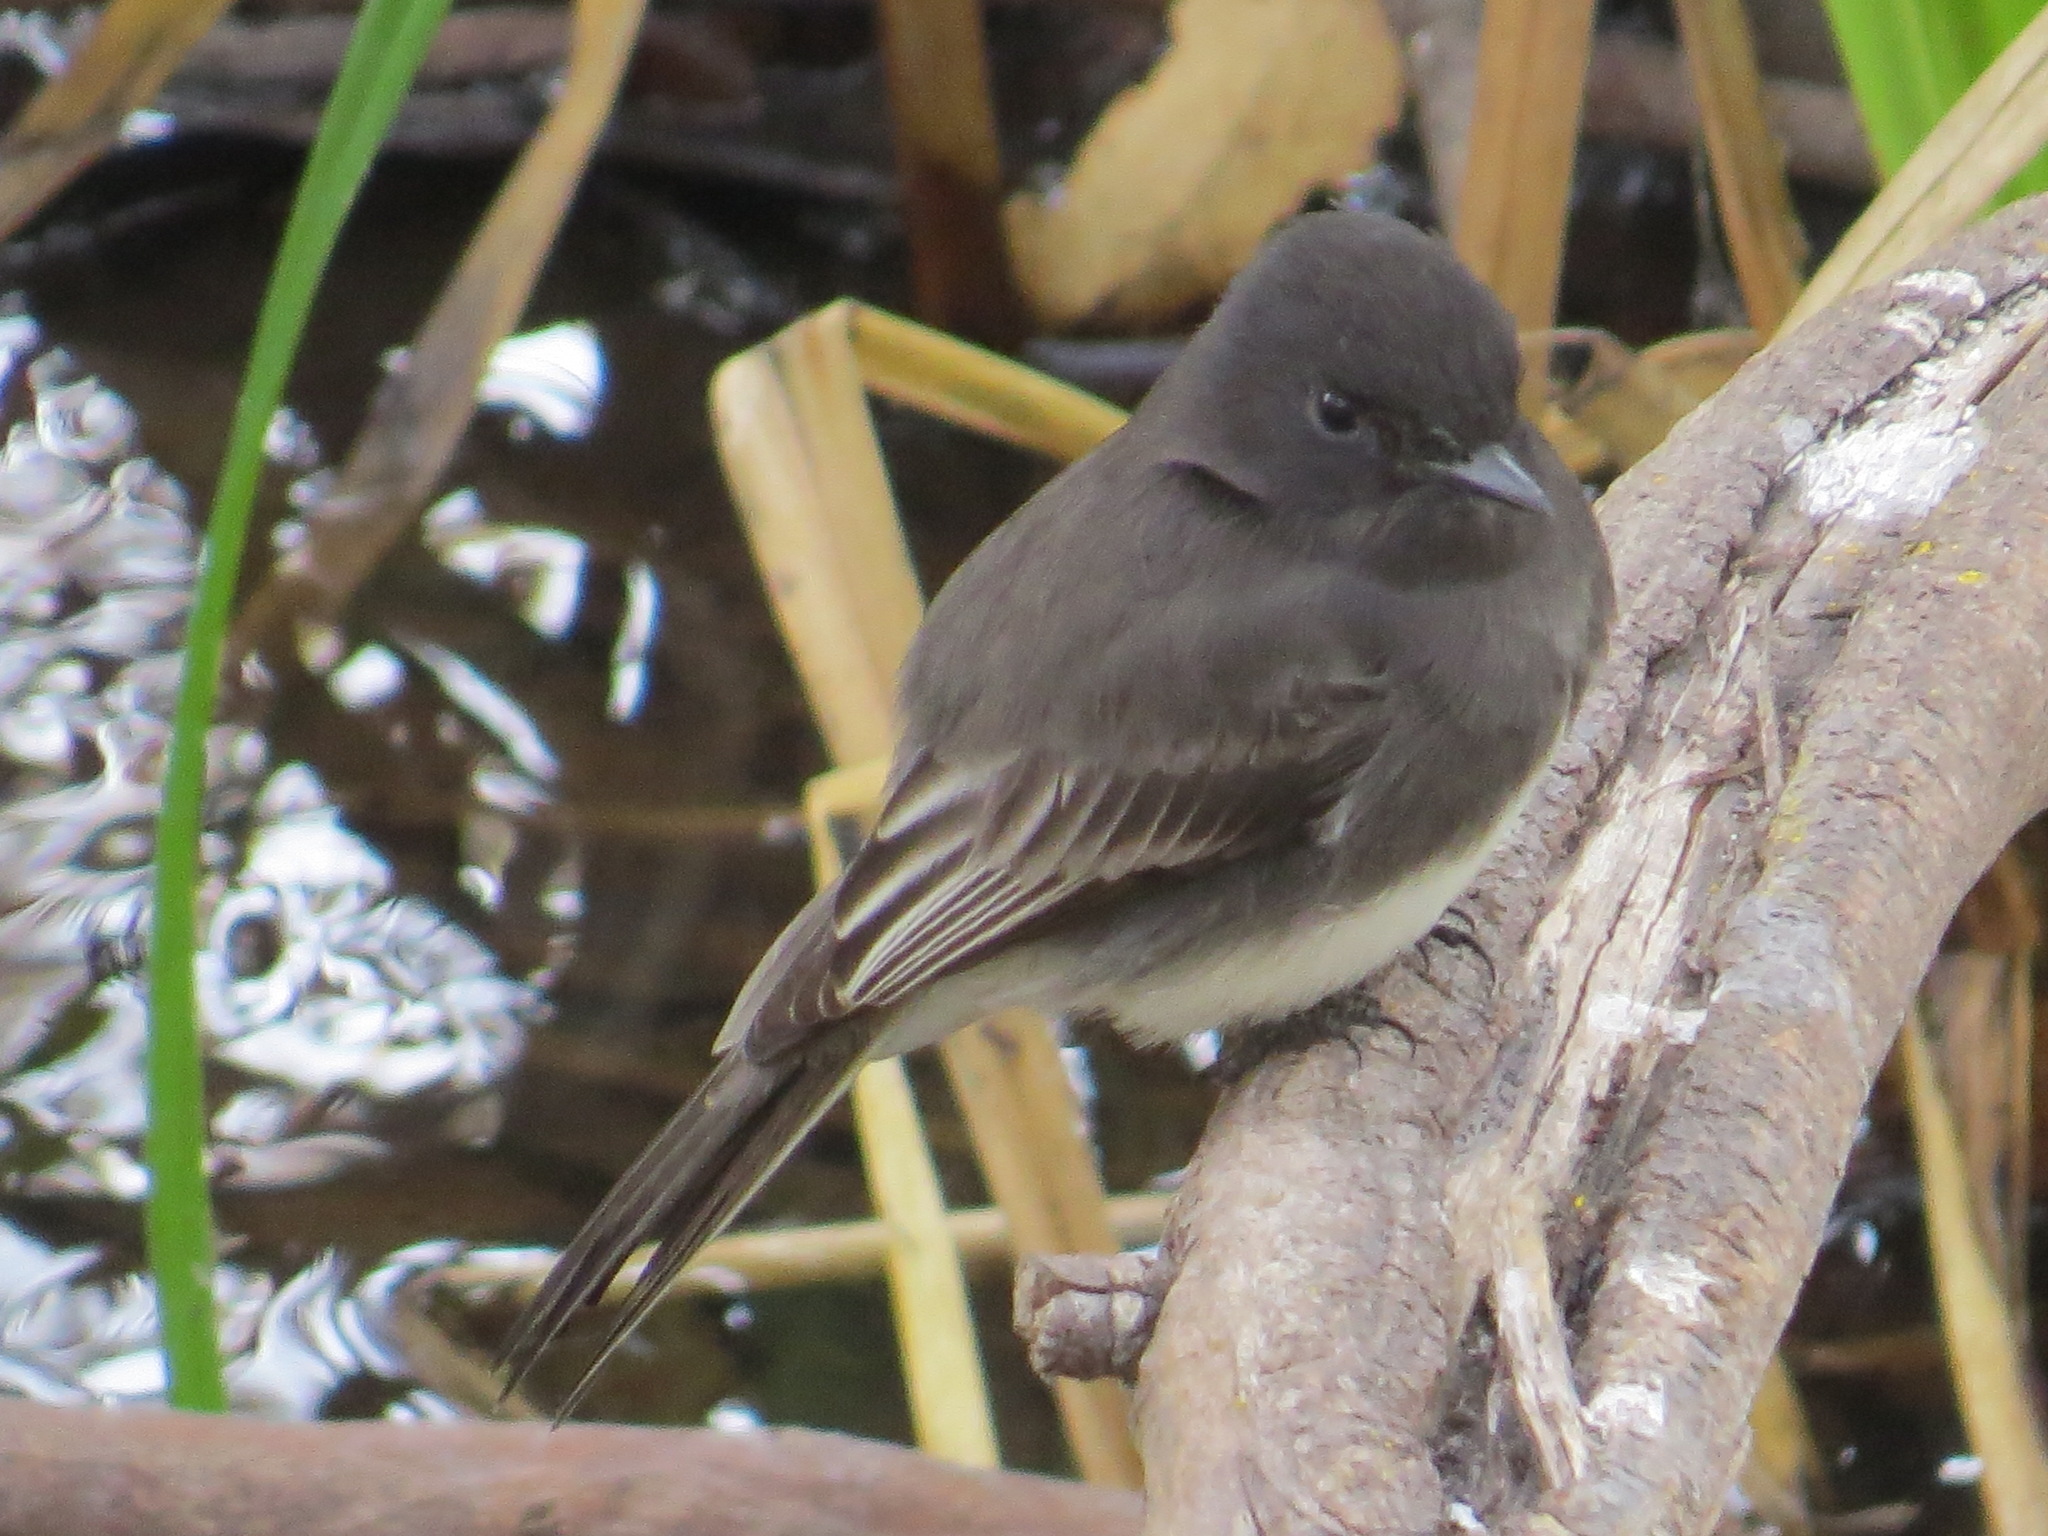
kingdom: Animalia
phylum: Chordata
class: Aves
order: Passeriformes
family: Tyrannidae
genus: Sayornis
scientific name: Sayornis nigricans
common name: Black phoebe
